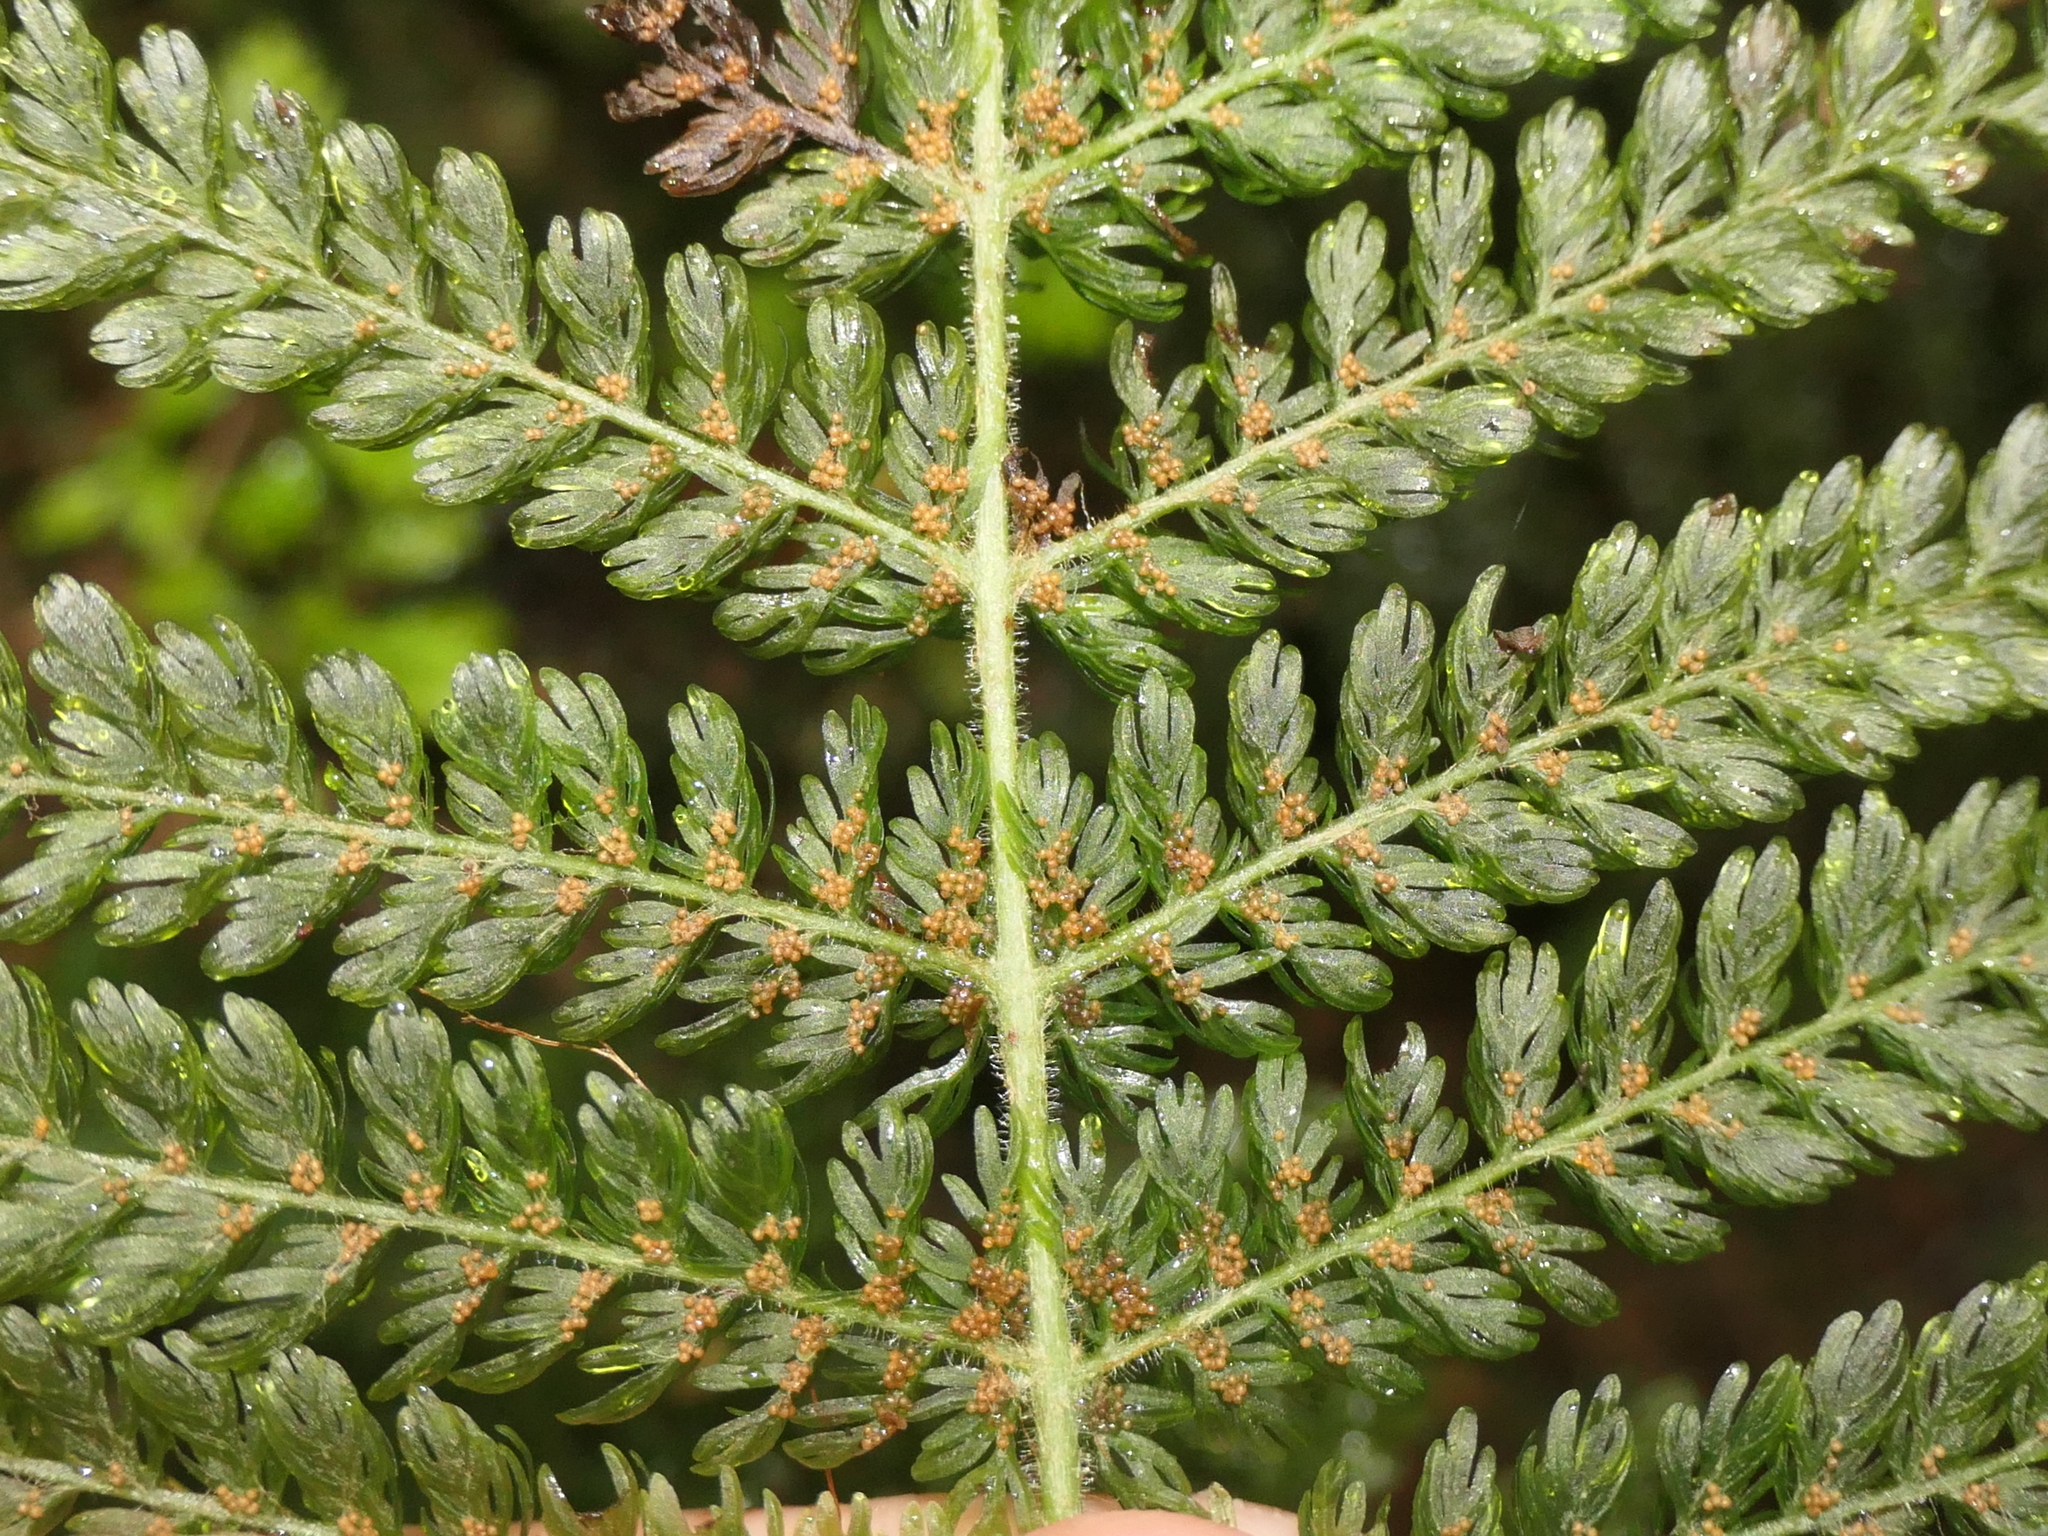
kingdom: Plantae
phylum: Tracheophyta
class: Polypodiopsida
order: Osmundales
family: Osmundaceae
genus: Leptopteris
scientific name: Leptopteris superba
